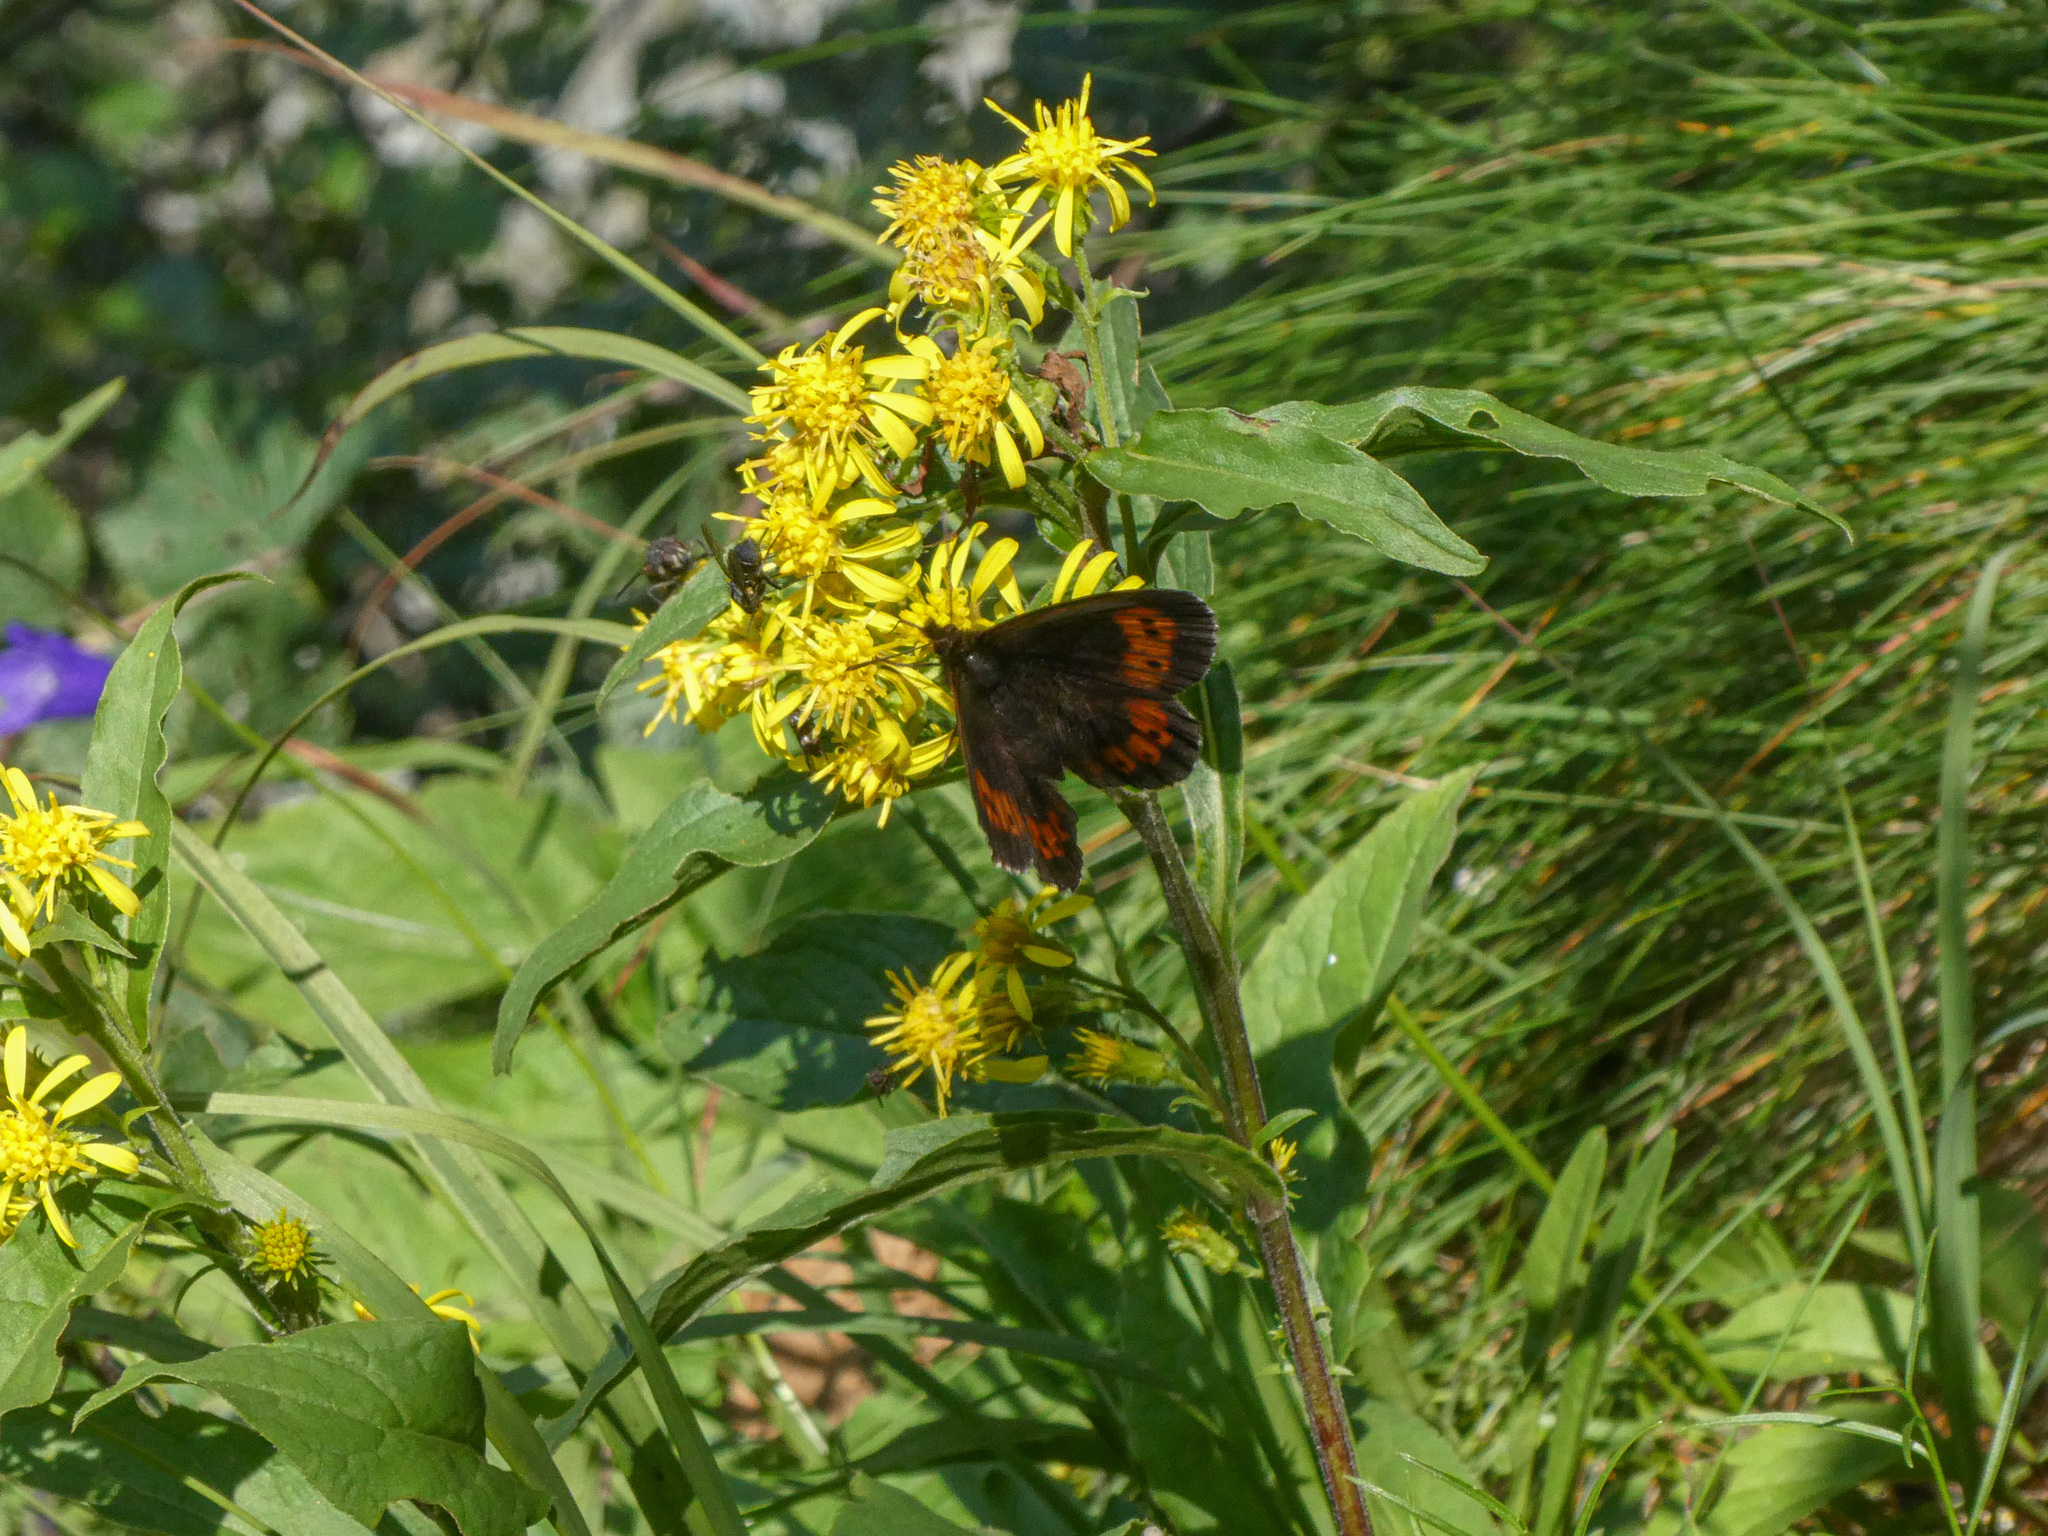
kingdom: Animalia
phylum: Arthropoda
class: Insecta
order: Lepidoptera
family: Nymphalidae
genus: Erebia
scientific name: Erebia euryale
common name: Large ringlet
